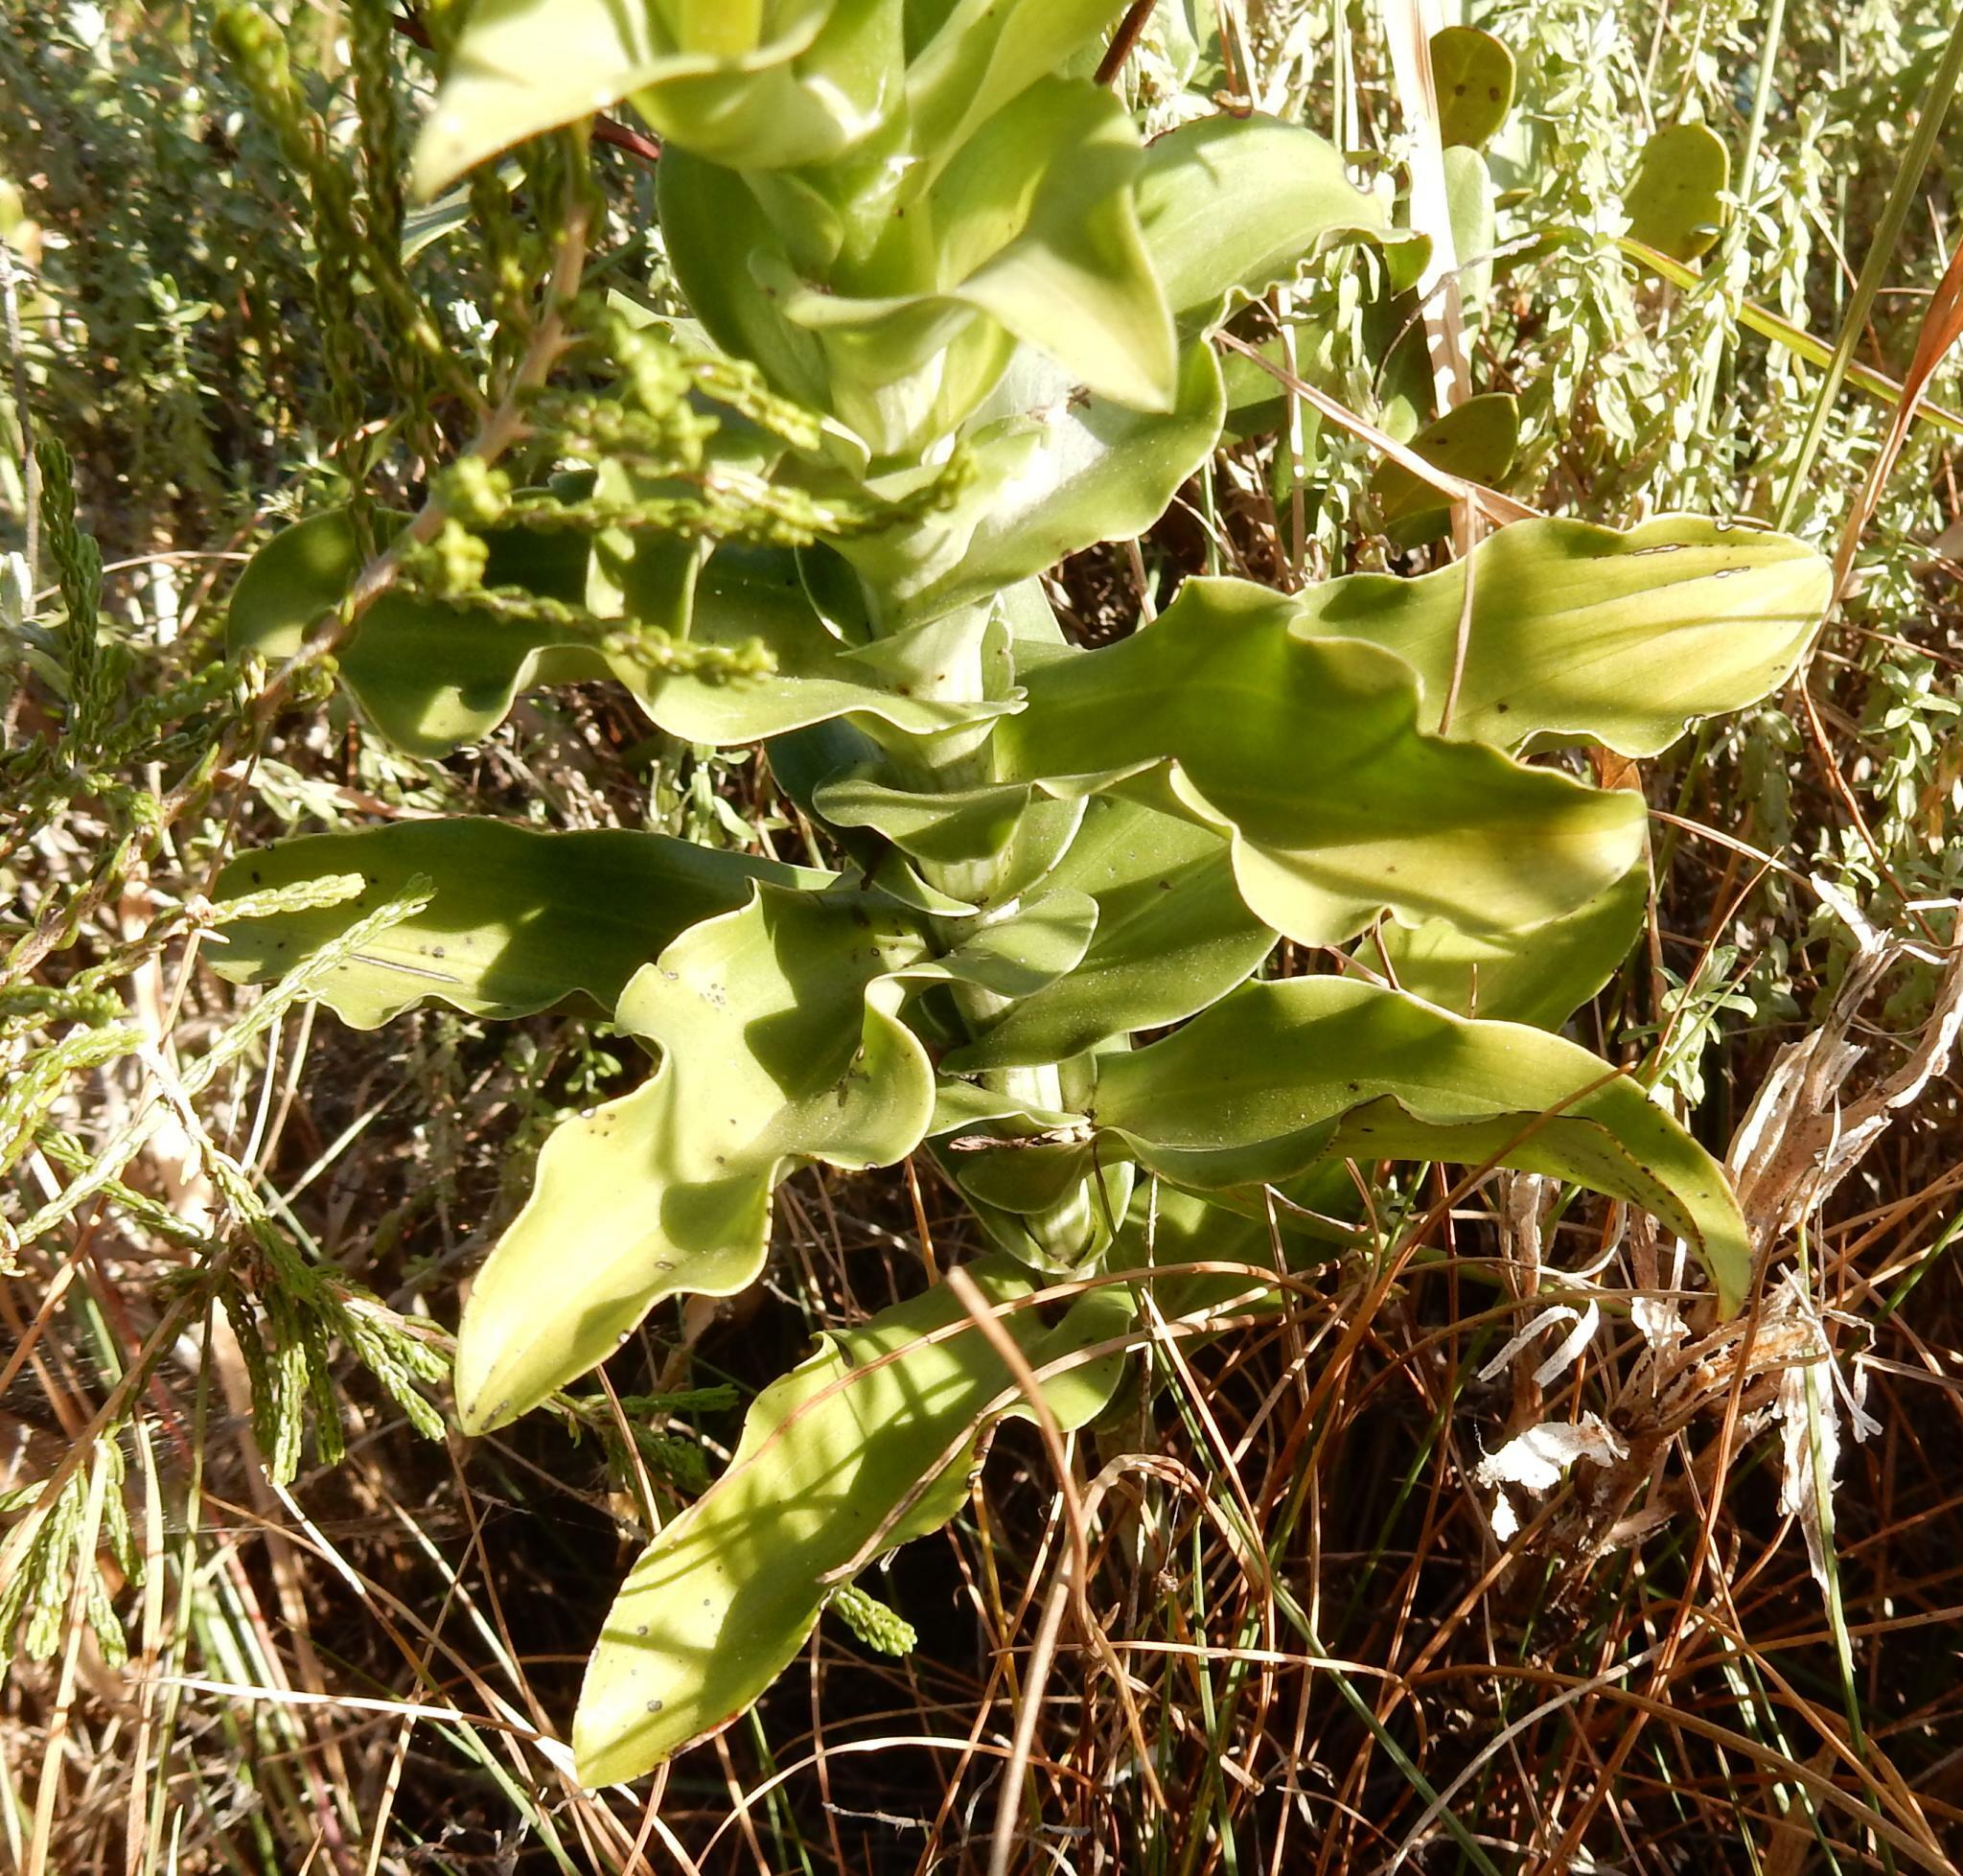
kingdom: Plantae
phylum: Tracheophyta
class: Liliopsida
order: Asparagales
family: Orchidaceae
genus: Bonatea
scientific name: Bonatea speciosa
